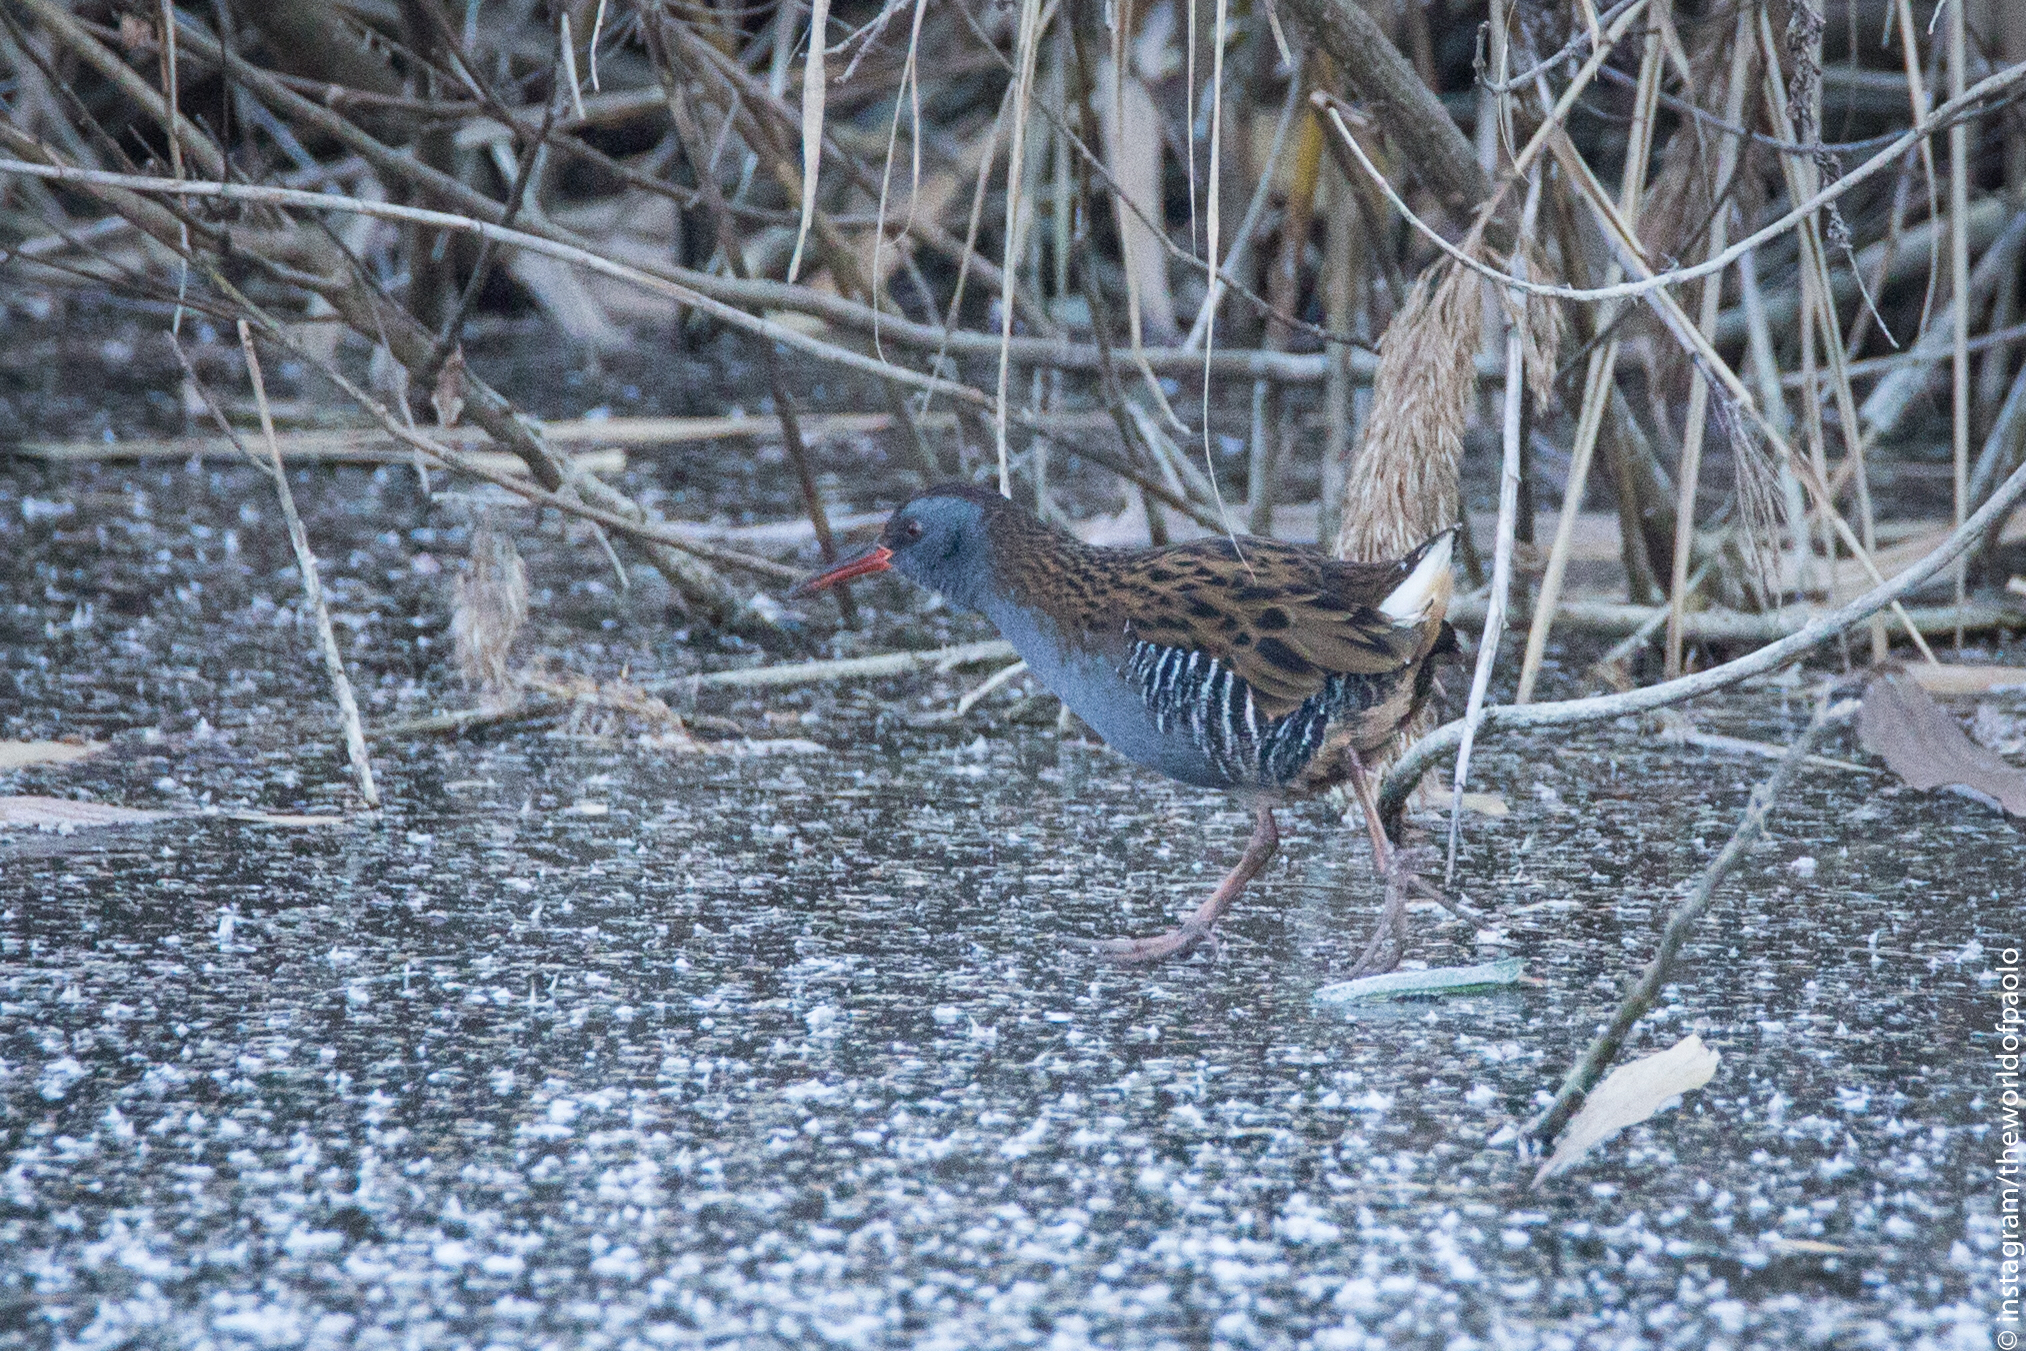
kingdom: Animalia
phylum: Chordata
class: Aves
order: Gruiformes
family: Rallidae
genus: Rallus
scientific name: Rallus aquaticus
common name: Water rail
